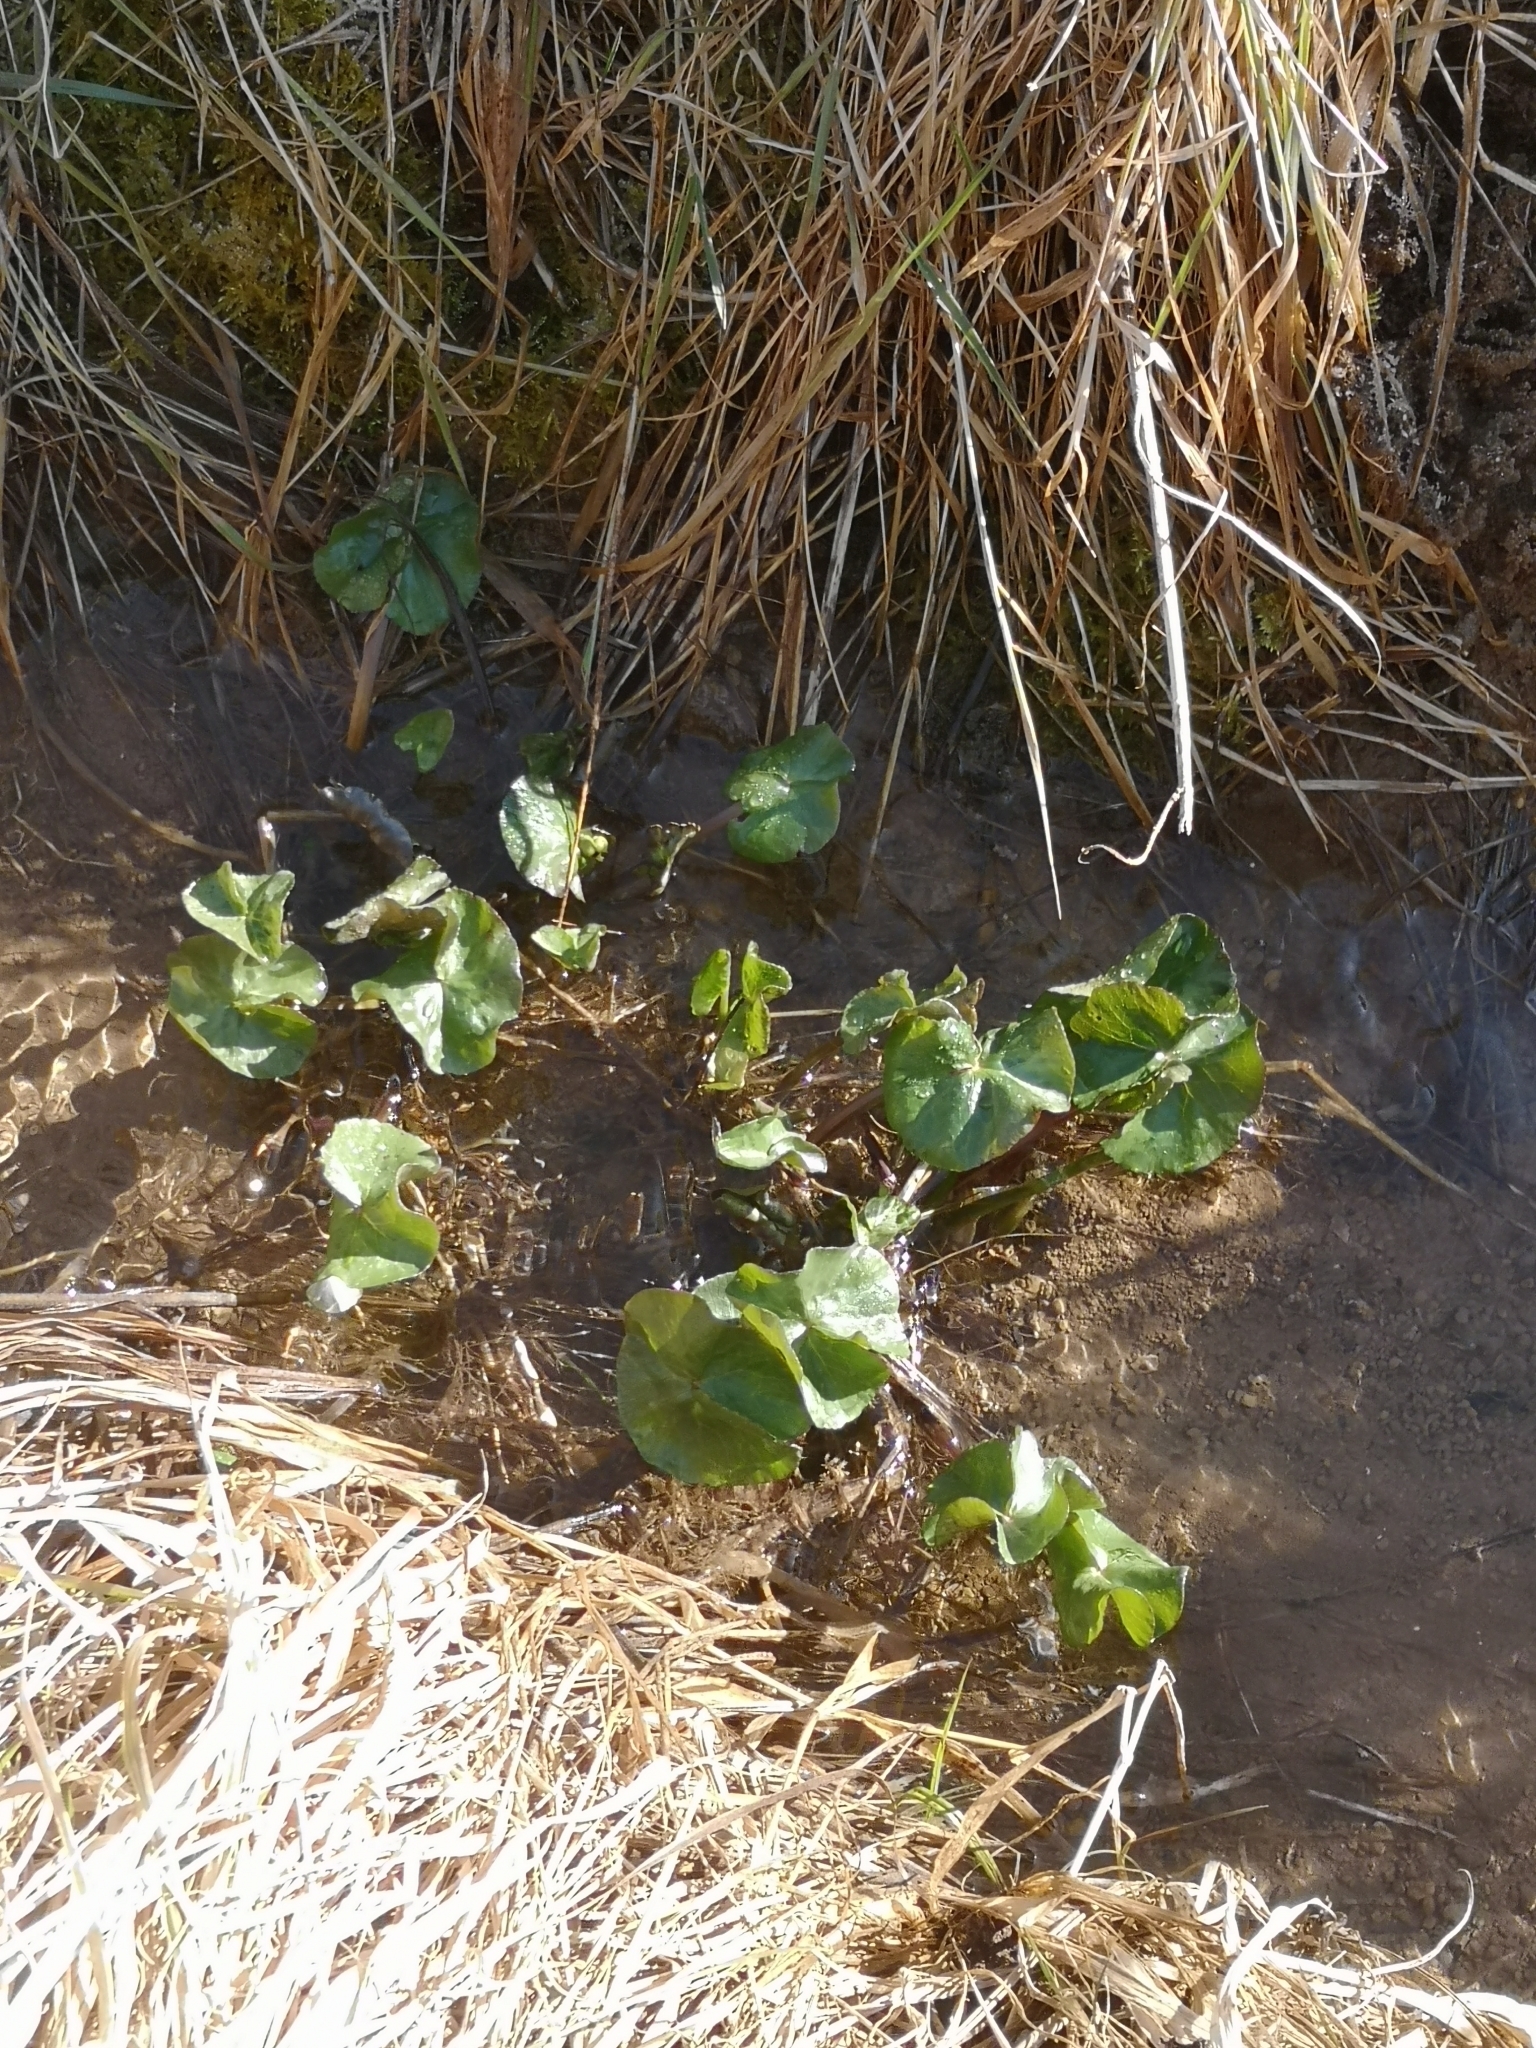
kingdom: Plantae
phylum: Tracheophyta
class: Magnoliopsida
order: Ranunculales
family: Ranunculaceae
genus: Caltha
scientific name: Caltha palustris
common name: Marsh marigold
